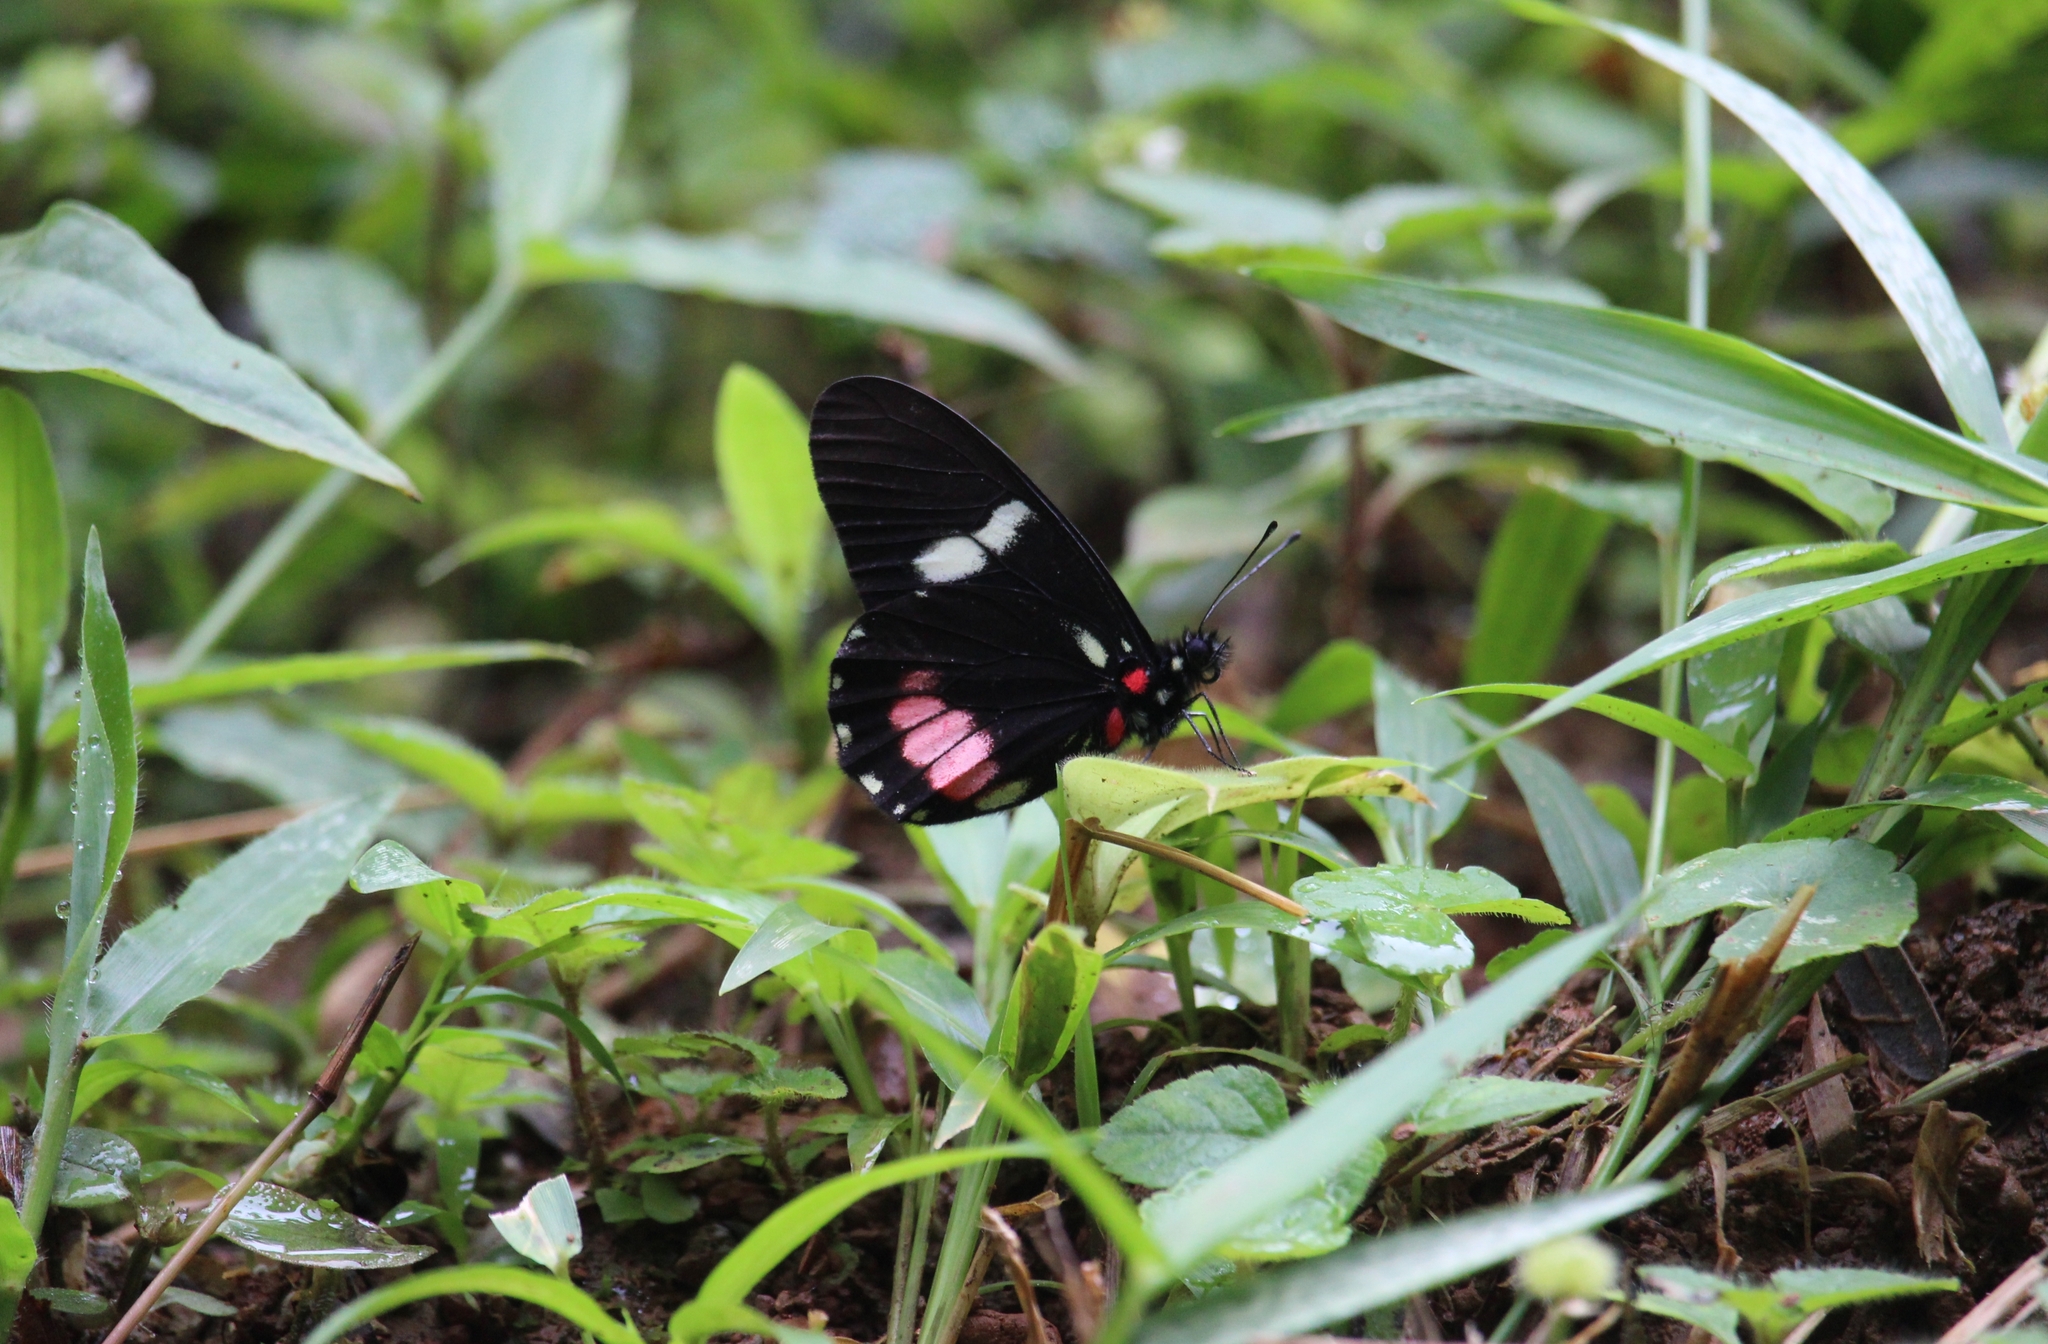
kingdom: Animalia
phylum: Arthropoda
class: Insecta
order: Lepidoptera
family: Pieridae
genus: Archonias
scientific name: Archonias brassolis
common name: Cattleheart white
